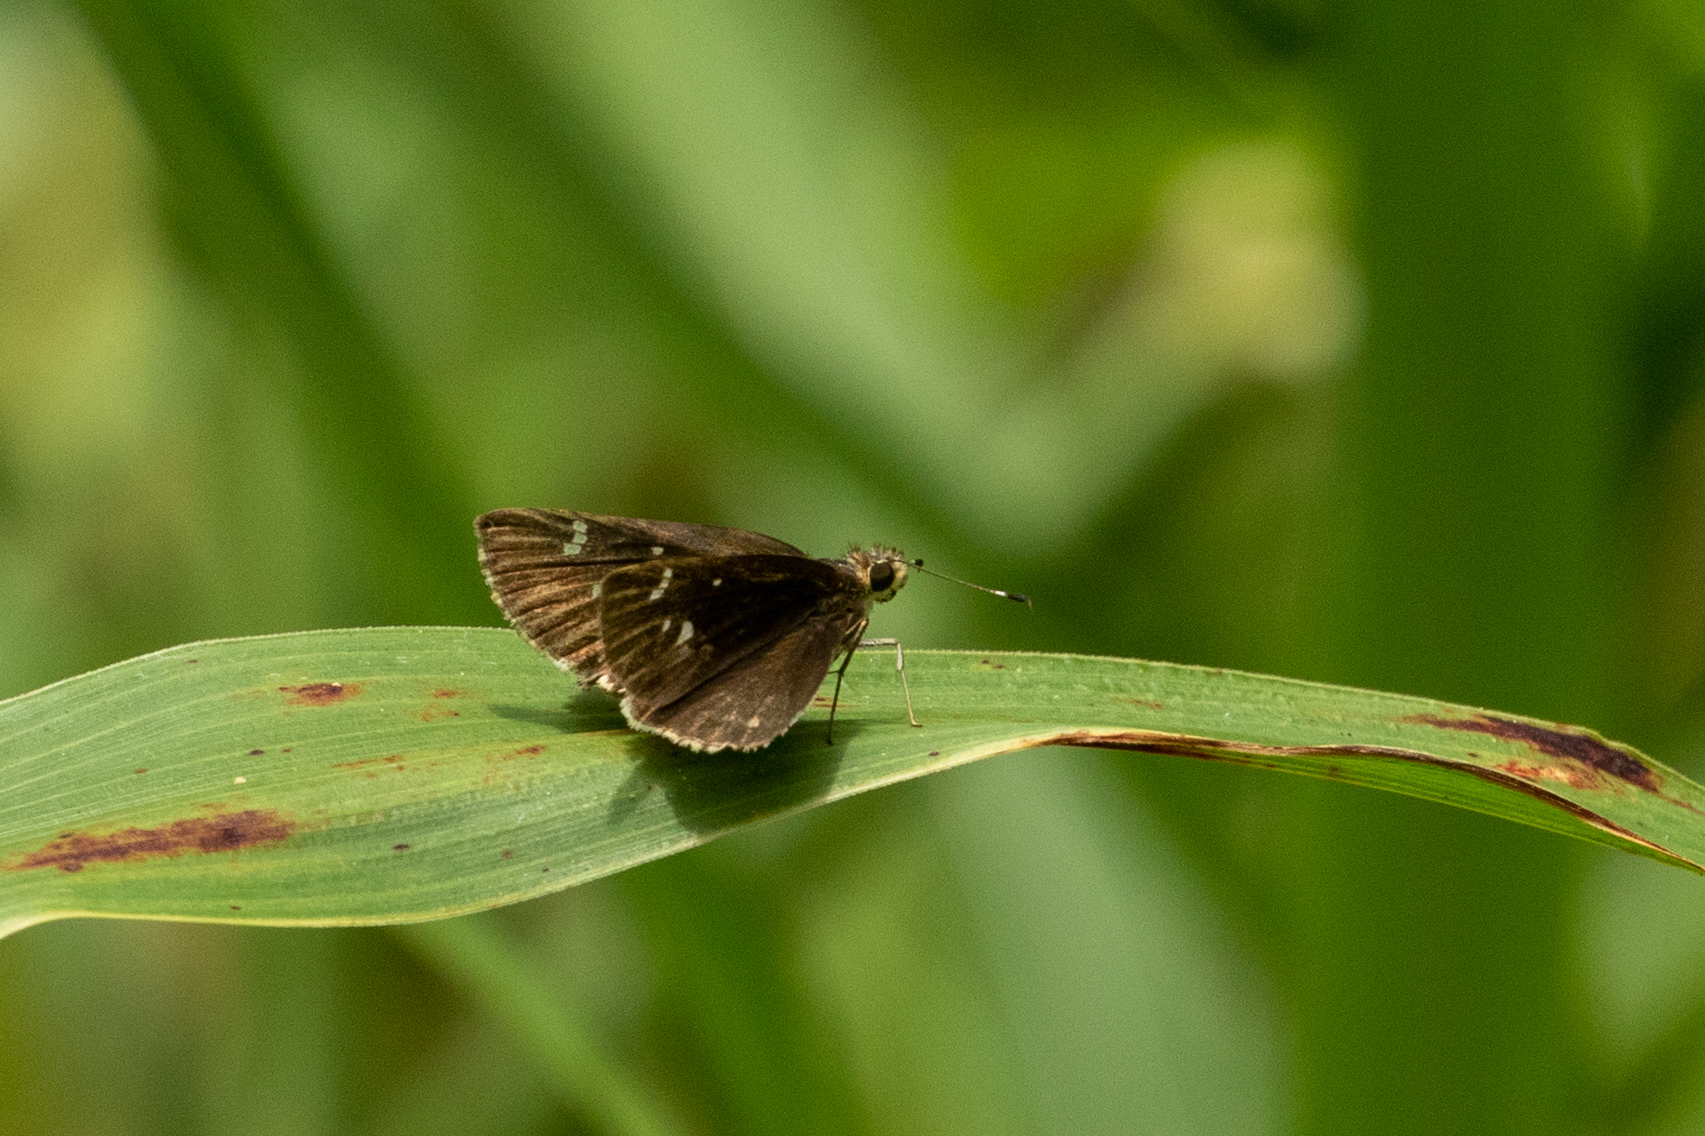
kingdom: Animalia
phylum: Arthropoda
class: Insecta
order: Lepidoptera
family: Hesperiidae
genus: Lerema
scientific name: Lerema accius
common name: Clouded skipper
